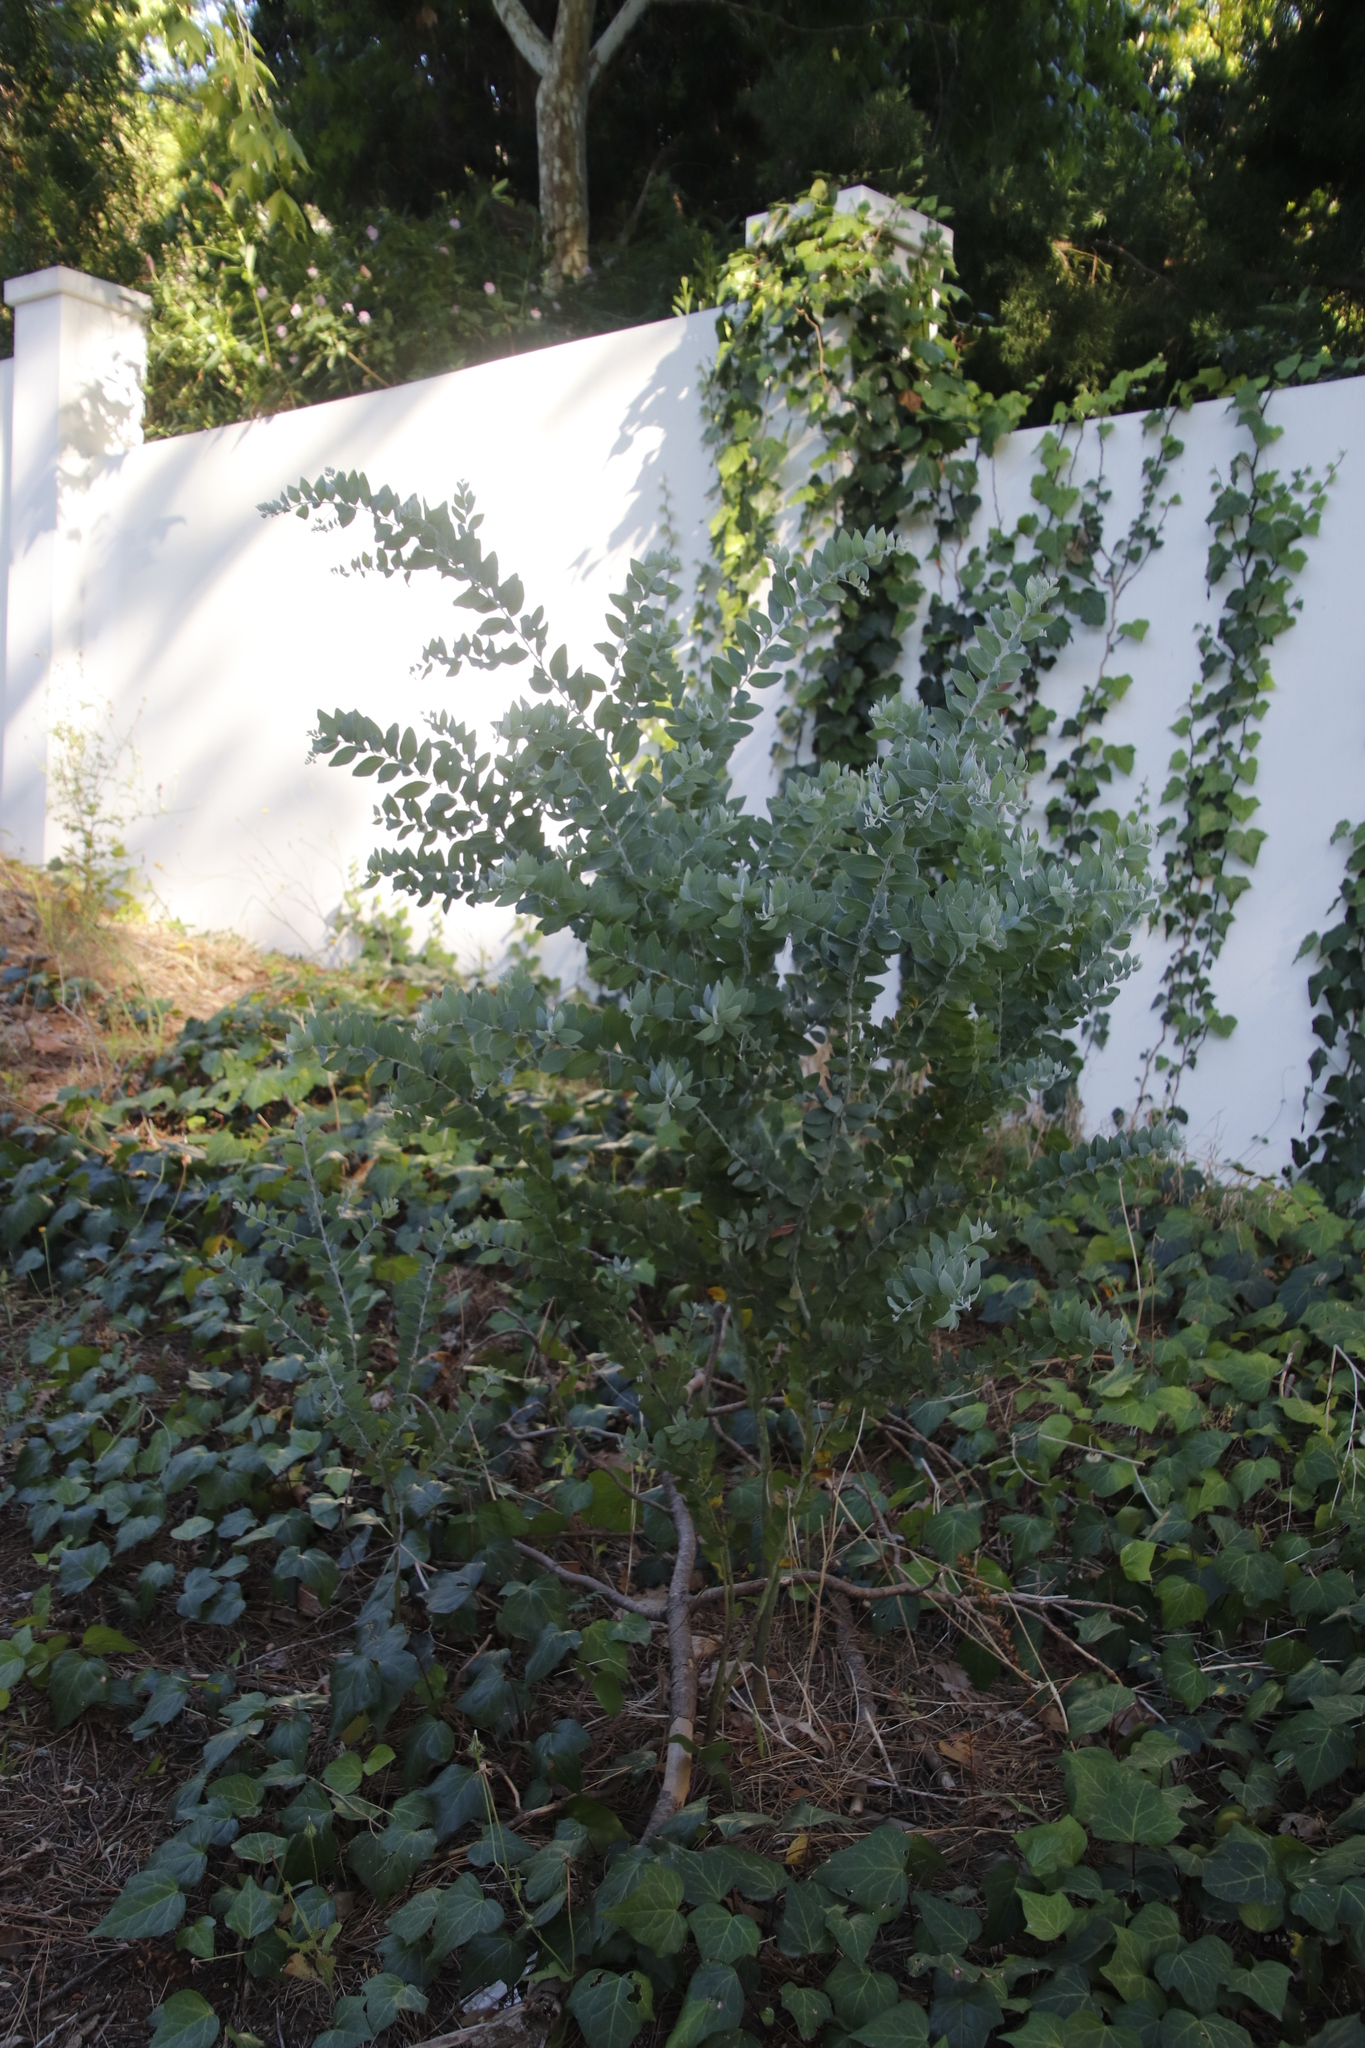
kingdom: Plantae
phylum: Tracheophyta
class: Magnoliopsida
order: Fabales
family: Fabaceae
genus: Acacia
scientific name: Acacia podalyriifolia
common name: Pearl wattle
